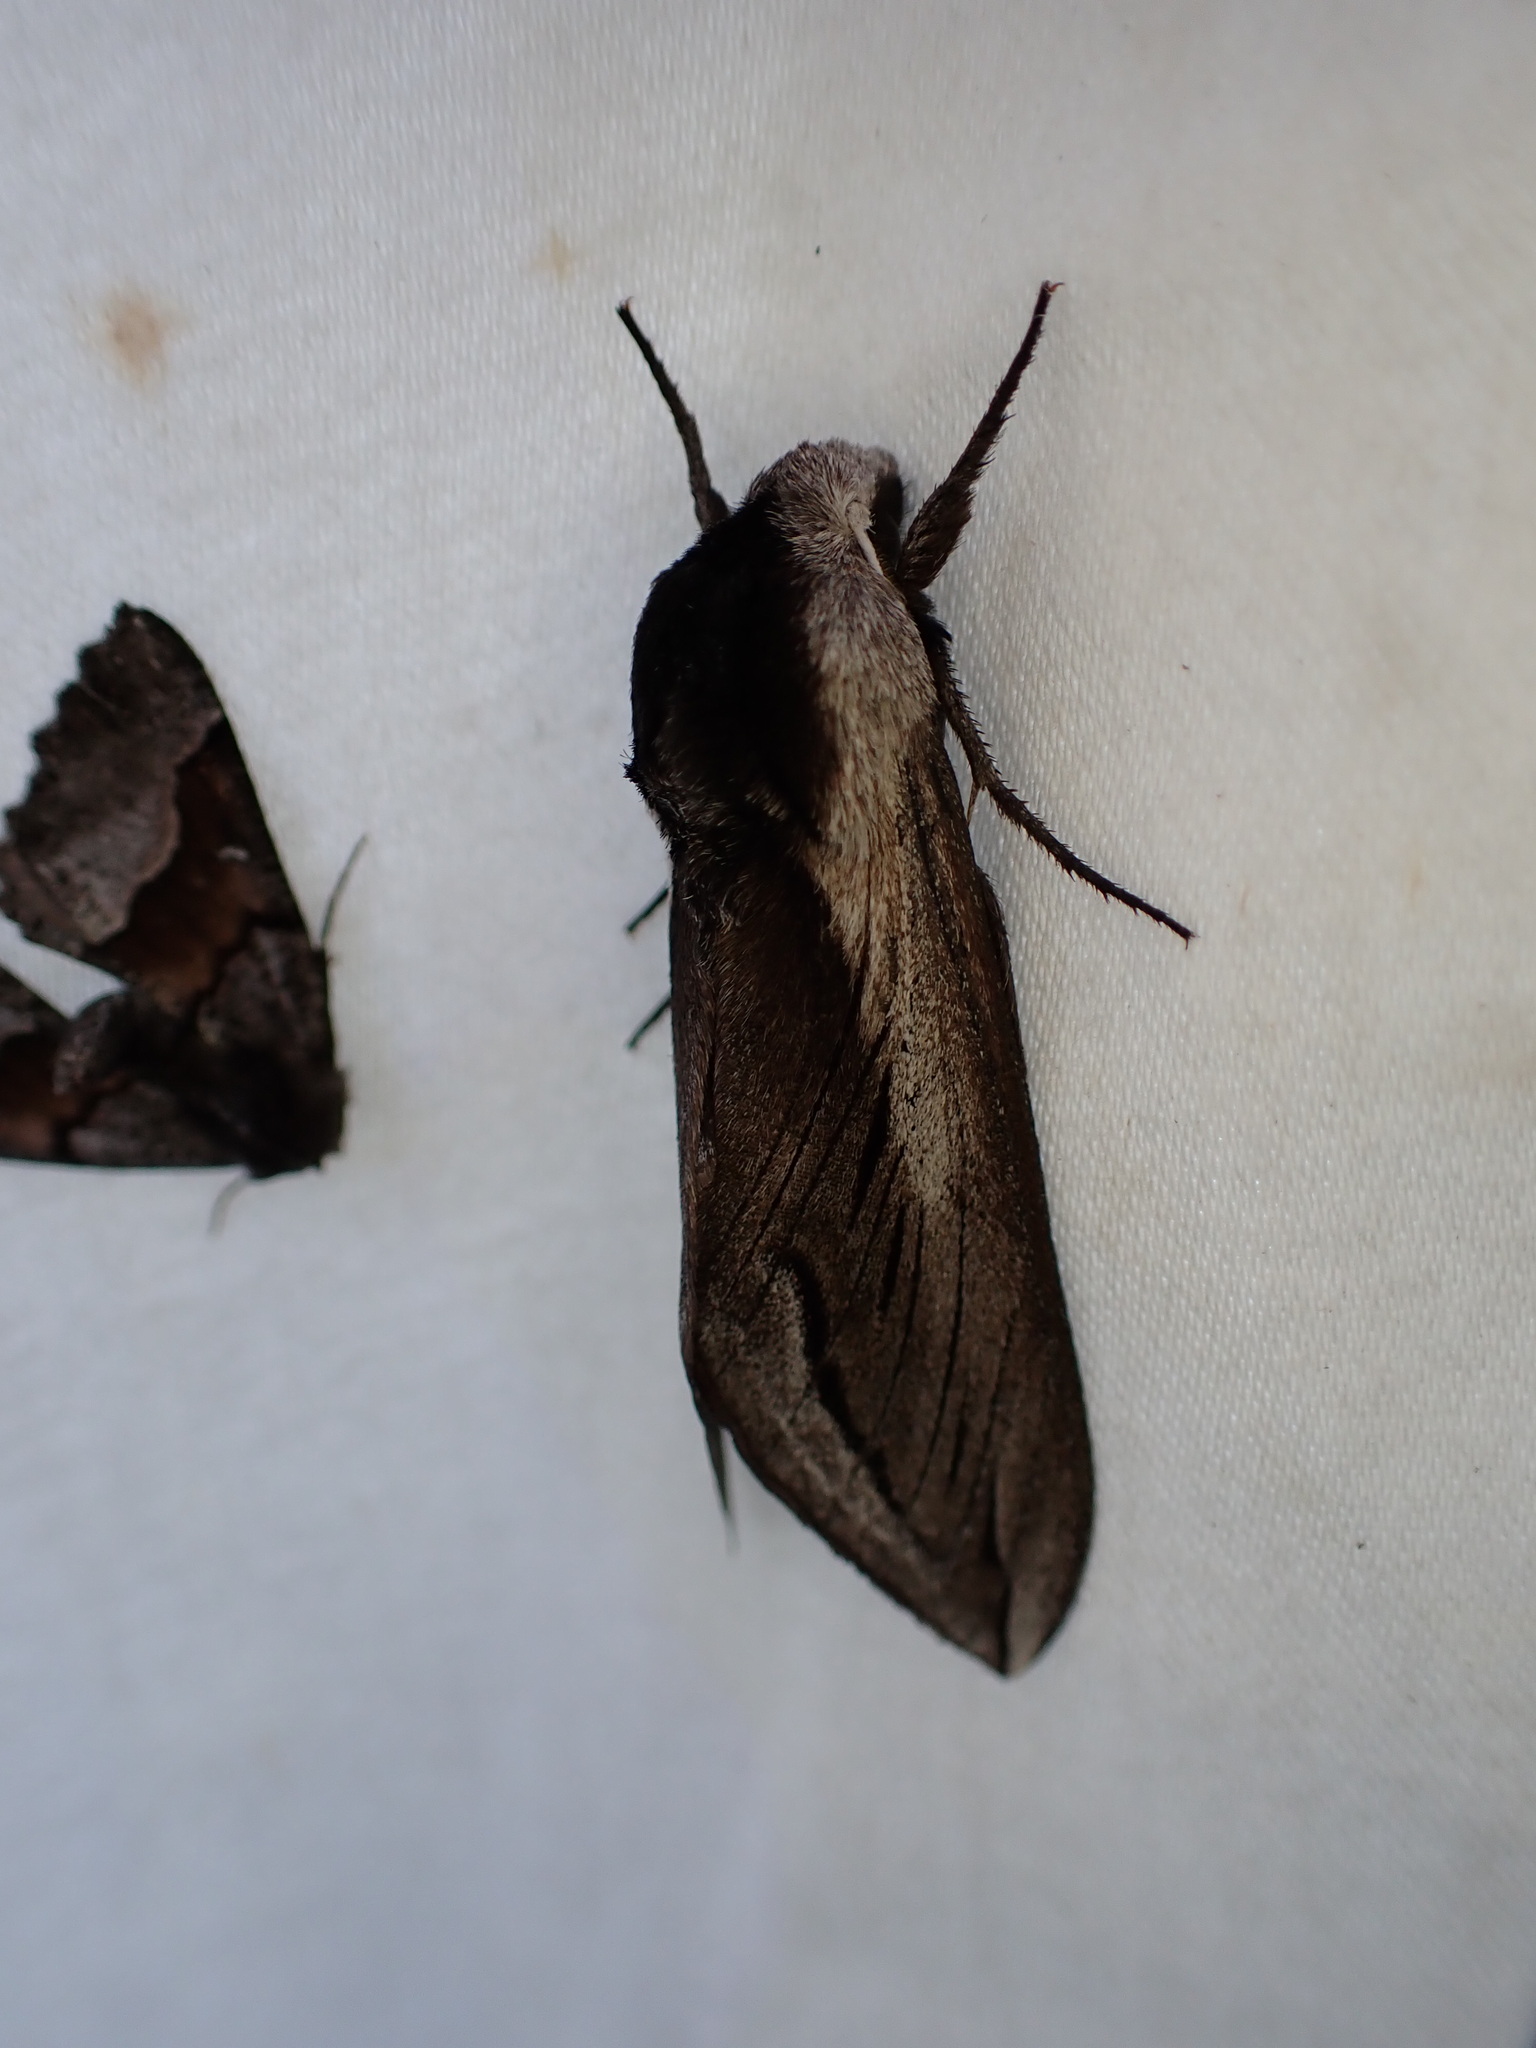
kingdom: Animalia
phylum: Arthropoda
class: Insecta
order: Lepidoptera
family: Sphingidae
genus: Sphinx
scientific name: Sphinx vashti
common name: Snowberry sphinx
